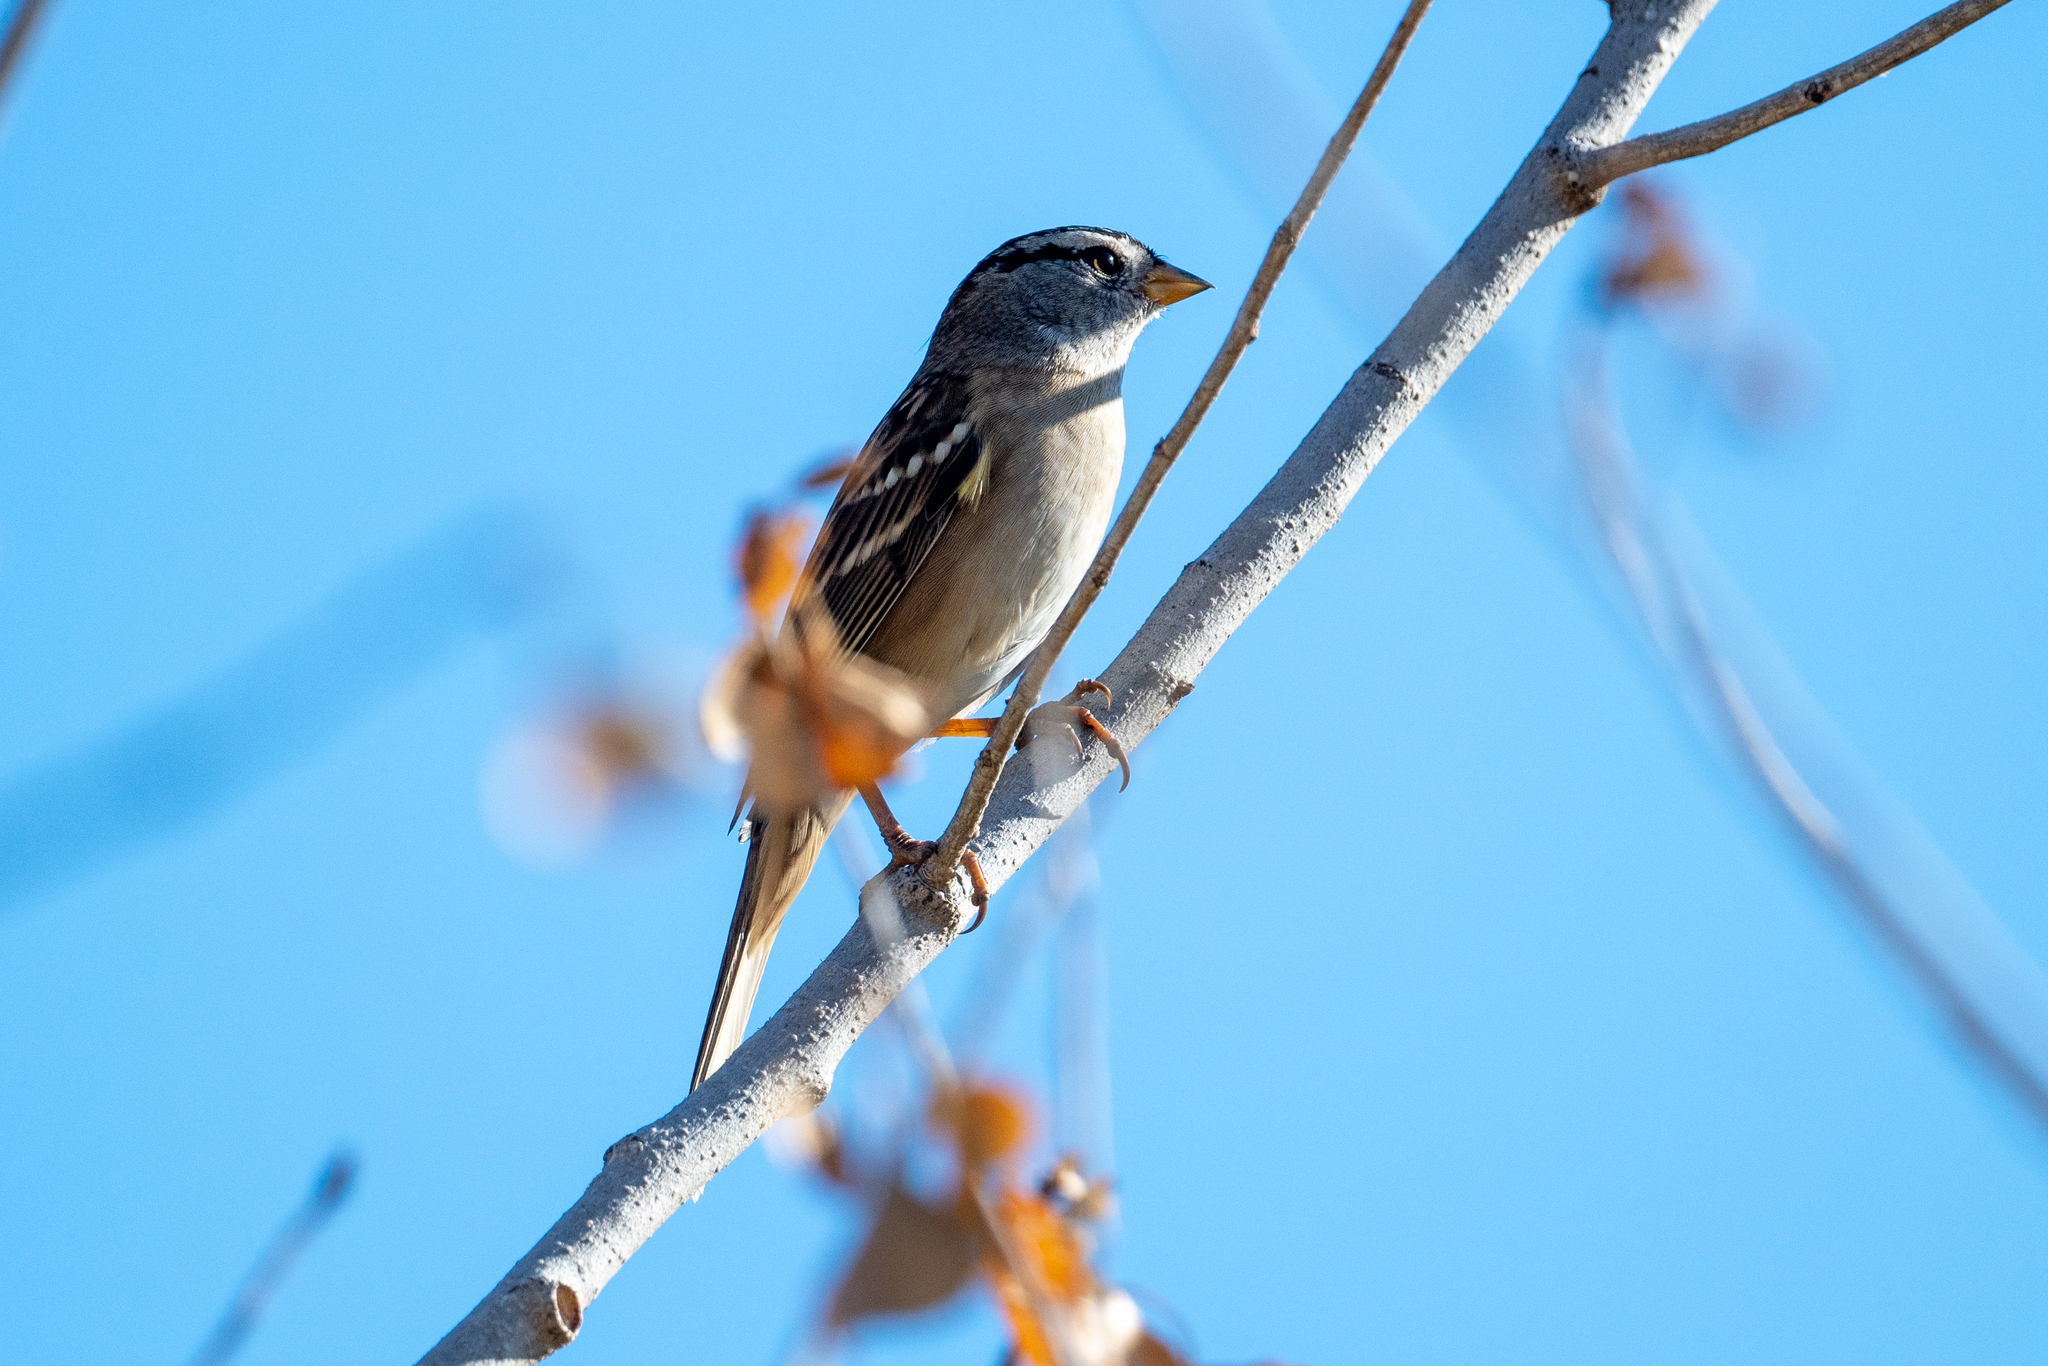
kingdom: Animalia
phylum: Chordata
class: Aves
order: Passeriformes
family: Passerellidae
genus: Zonotrichia
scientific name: Zonotrichia leucophrys
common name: White-crowned sparrow
